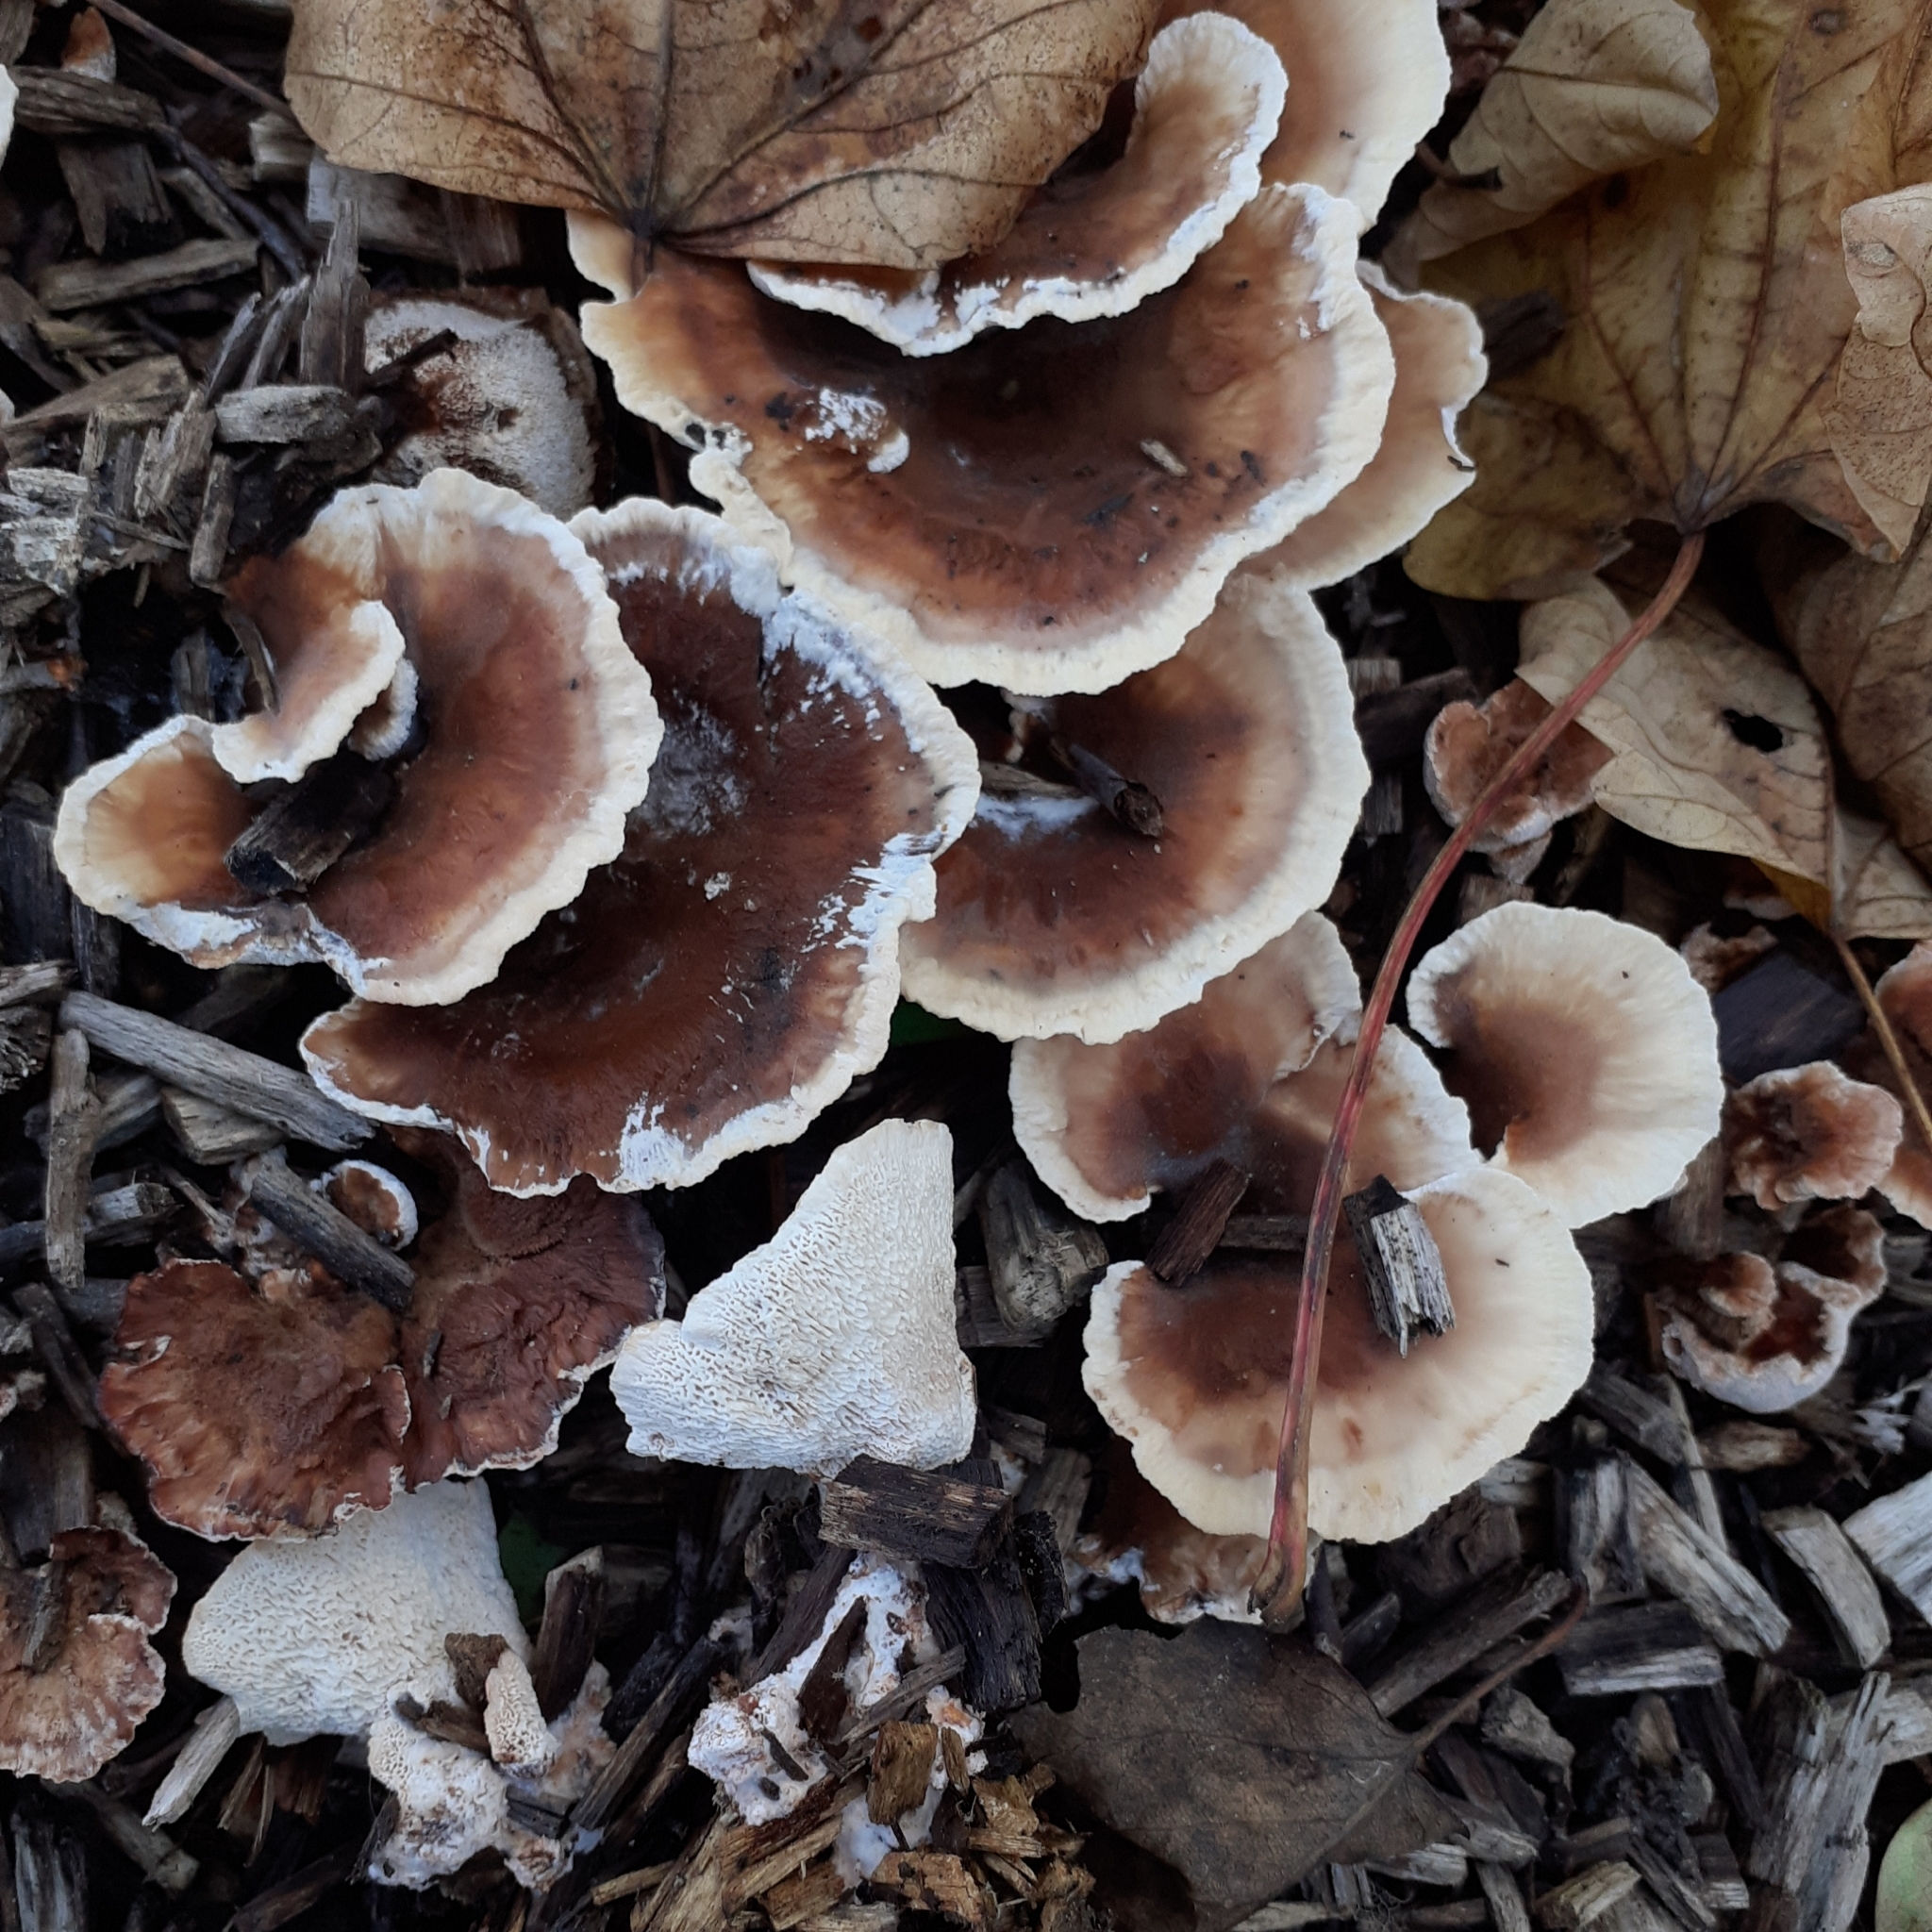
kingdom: Fungi
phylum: Basidiomycota
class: Agaricomycetes
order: Polyporales
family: Podoscyphaceae
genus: Abortiporus
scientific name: Abortiporus biennis
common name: Blushing rosette
